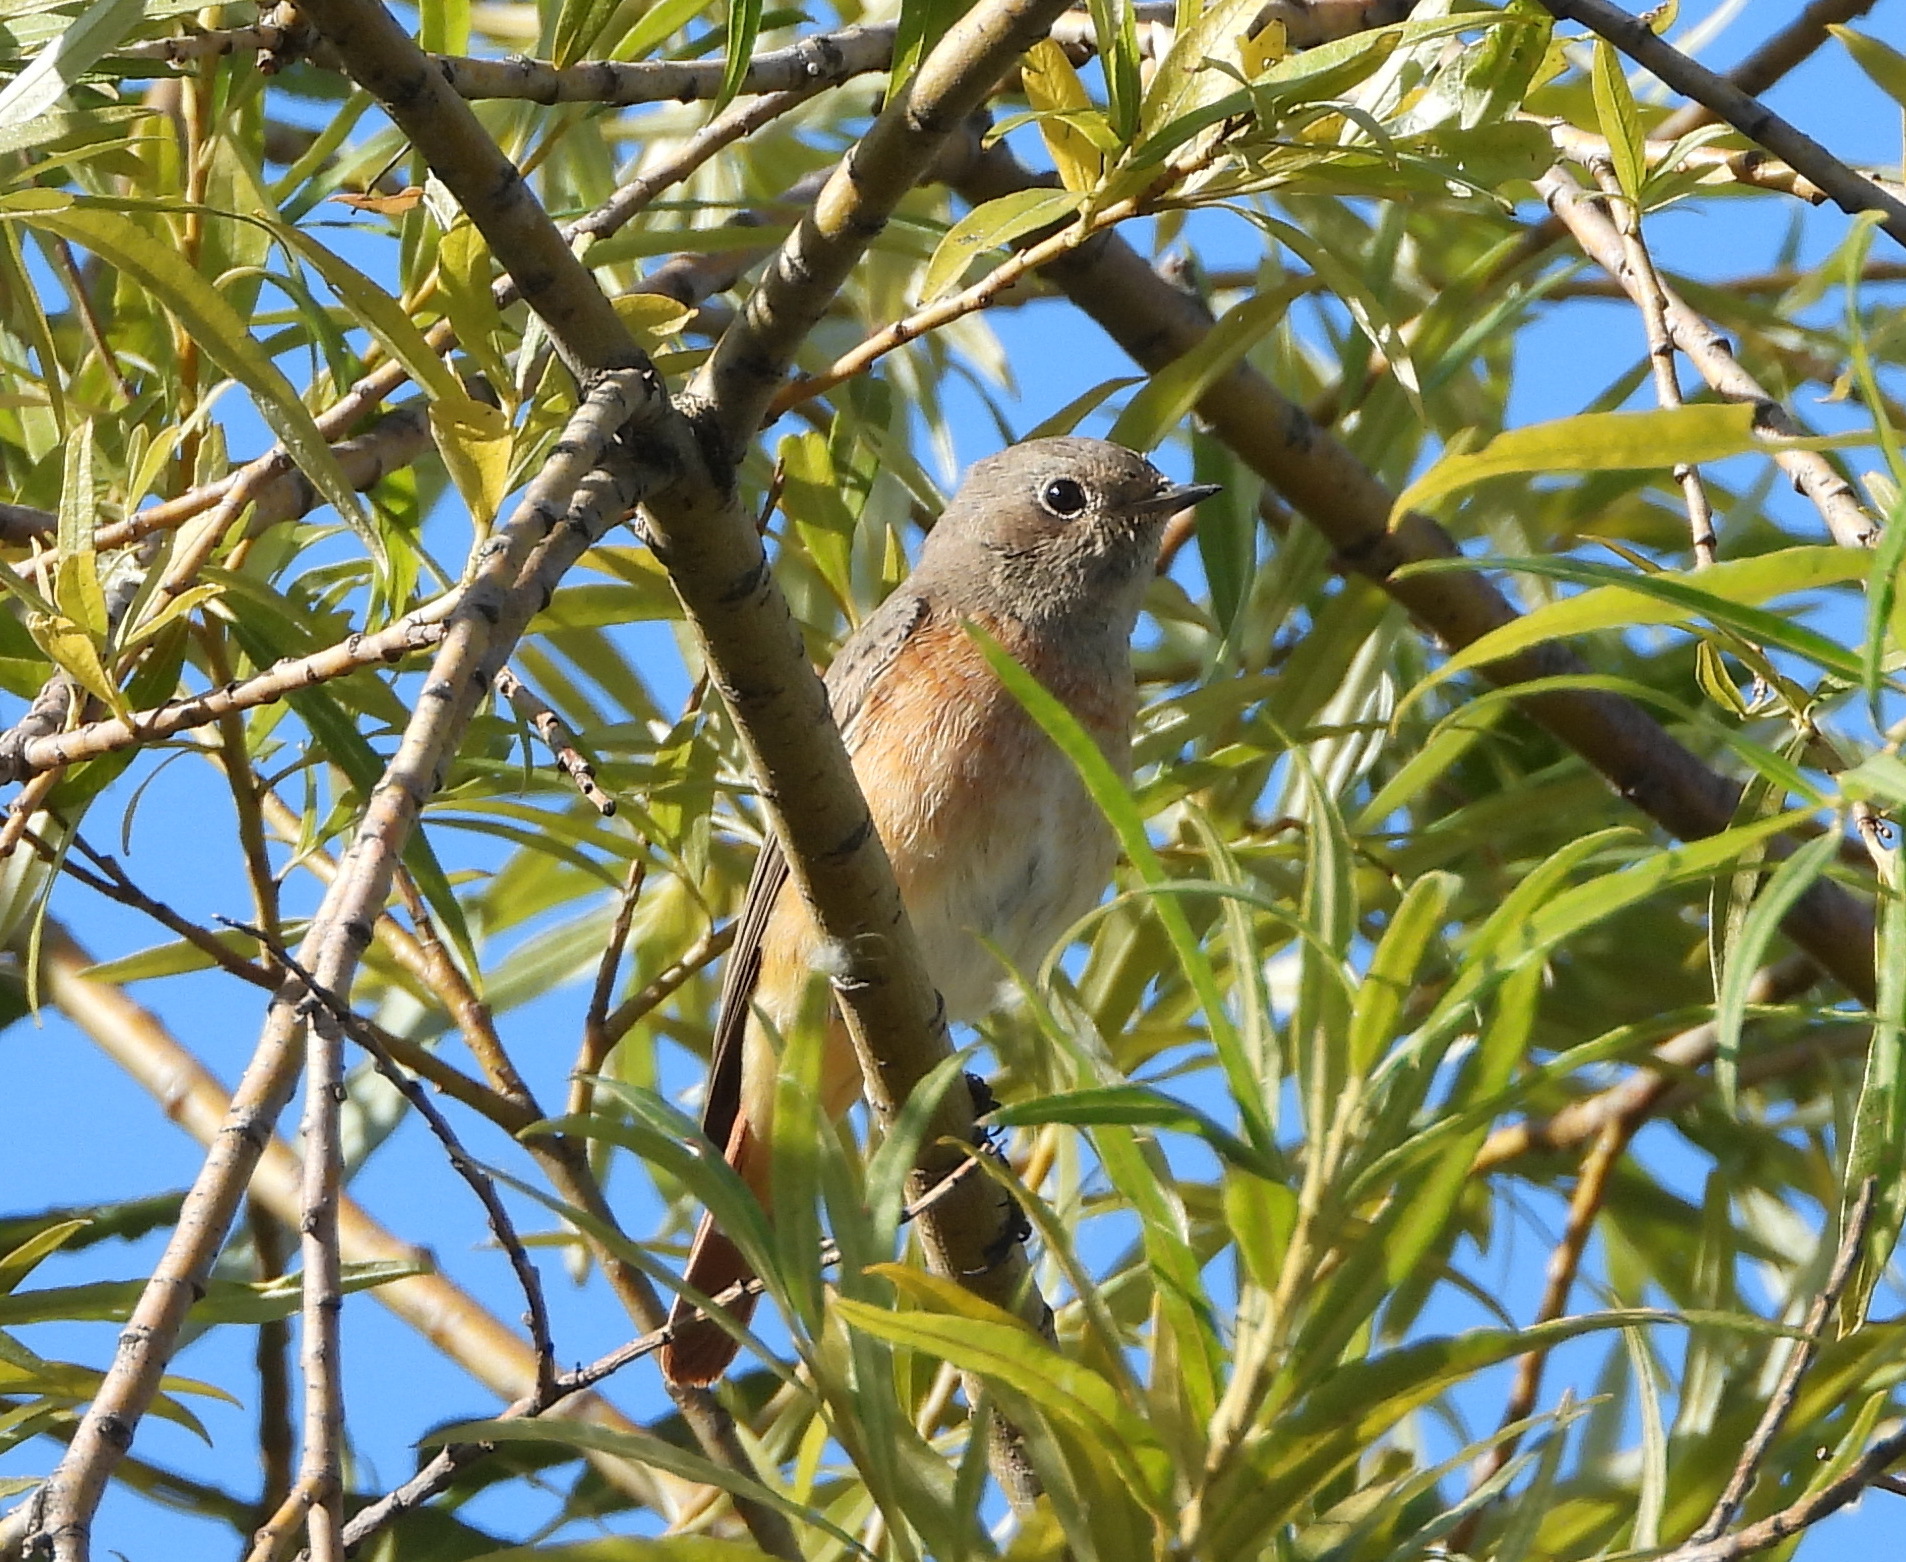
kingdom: Animalia
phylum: Chordata
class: Aves
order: Passeriformes
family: Muscicapidae
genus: Phoenicurus
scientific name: Phoenicurus phoenicurus
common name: Common redstart
